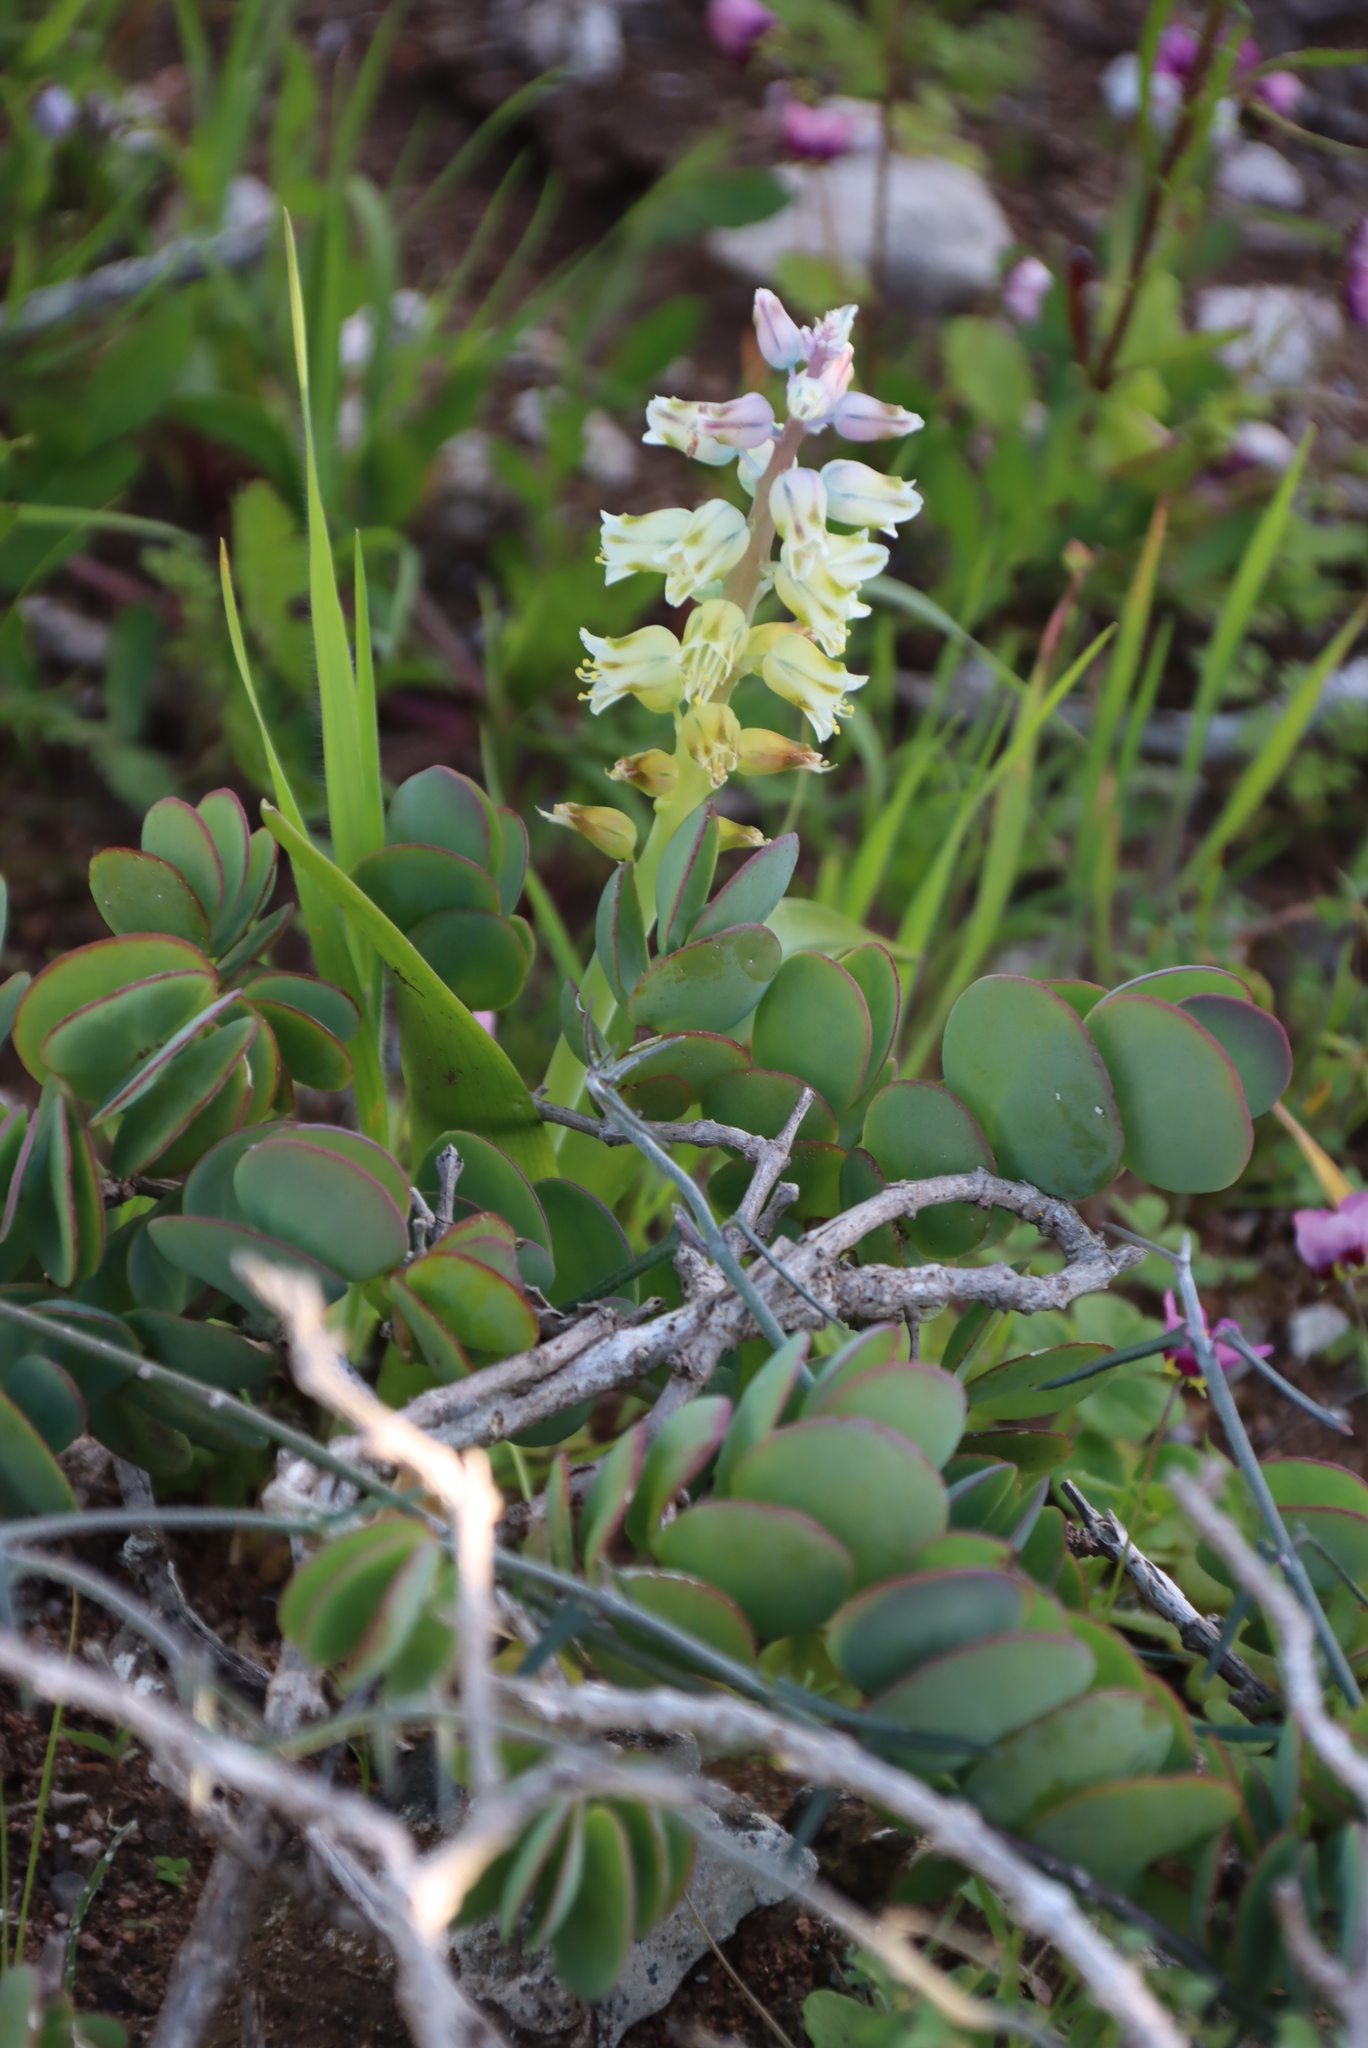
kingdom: Plantae
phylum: Tracheophyta
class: Liliopsida
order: Asparagales
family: Asparagaceae
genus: Lachenalia
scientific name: Lachenalia pallida
